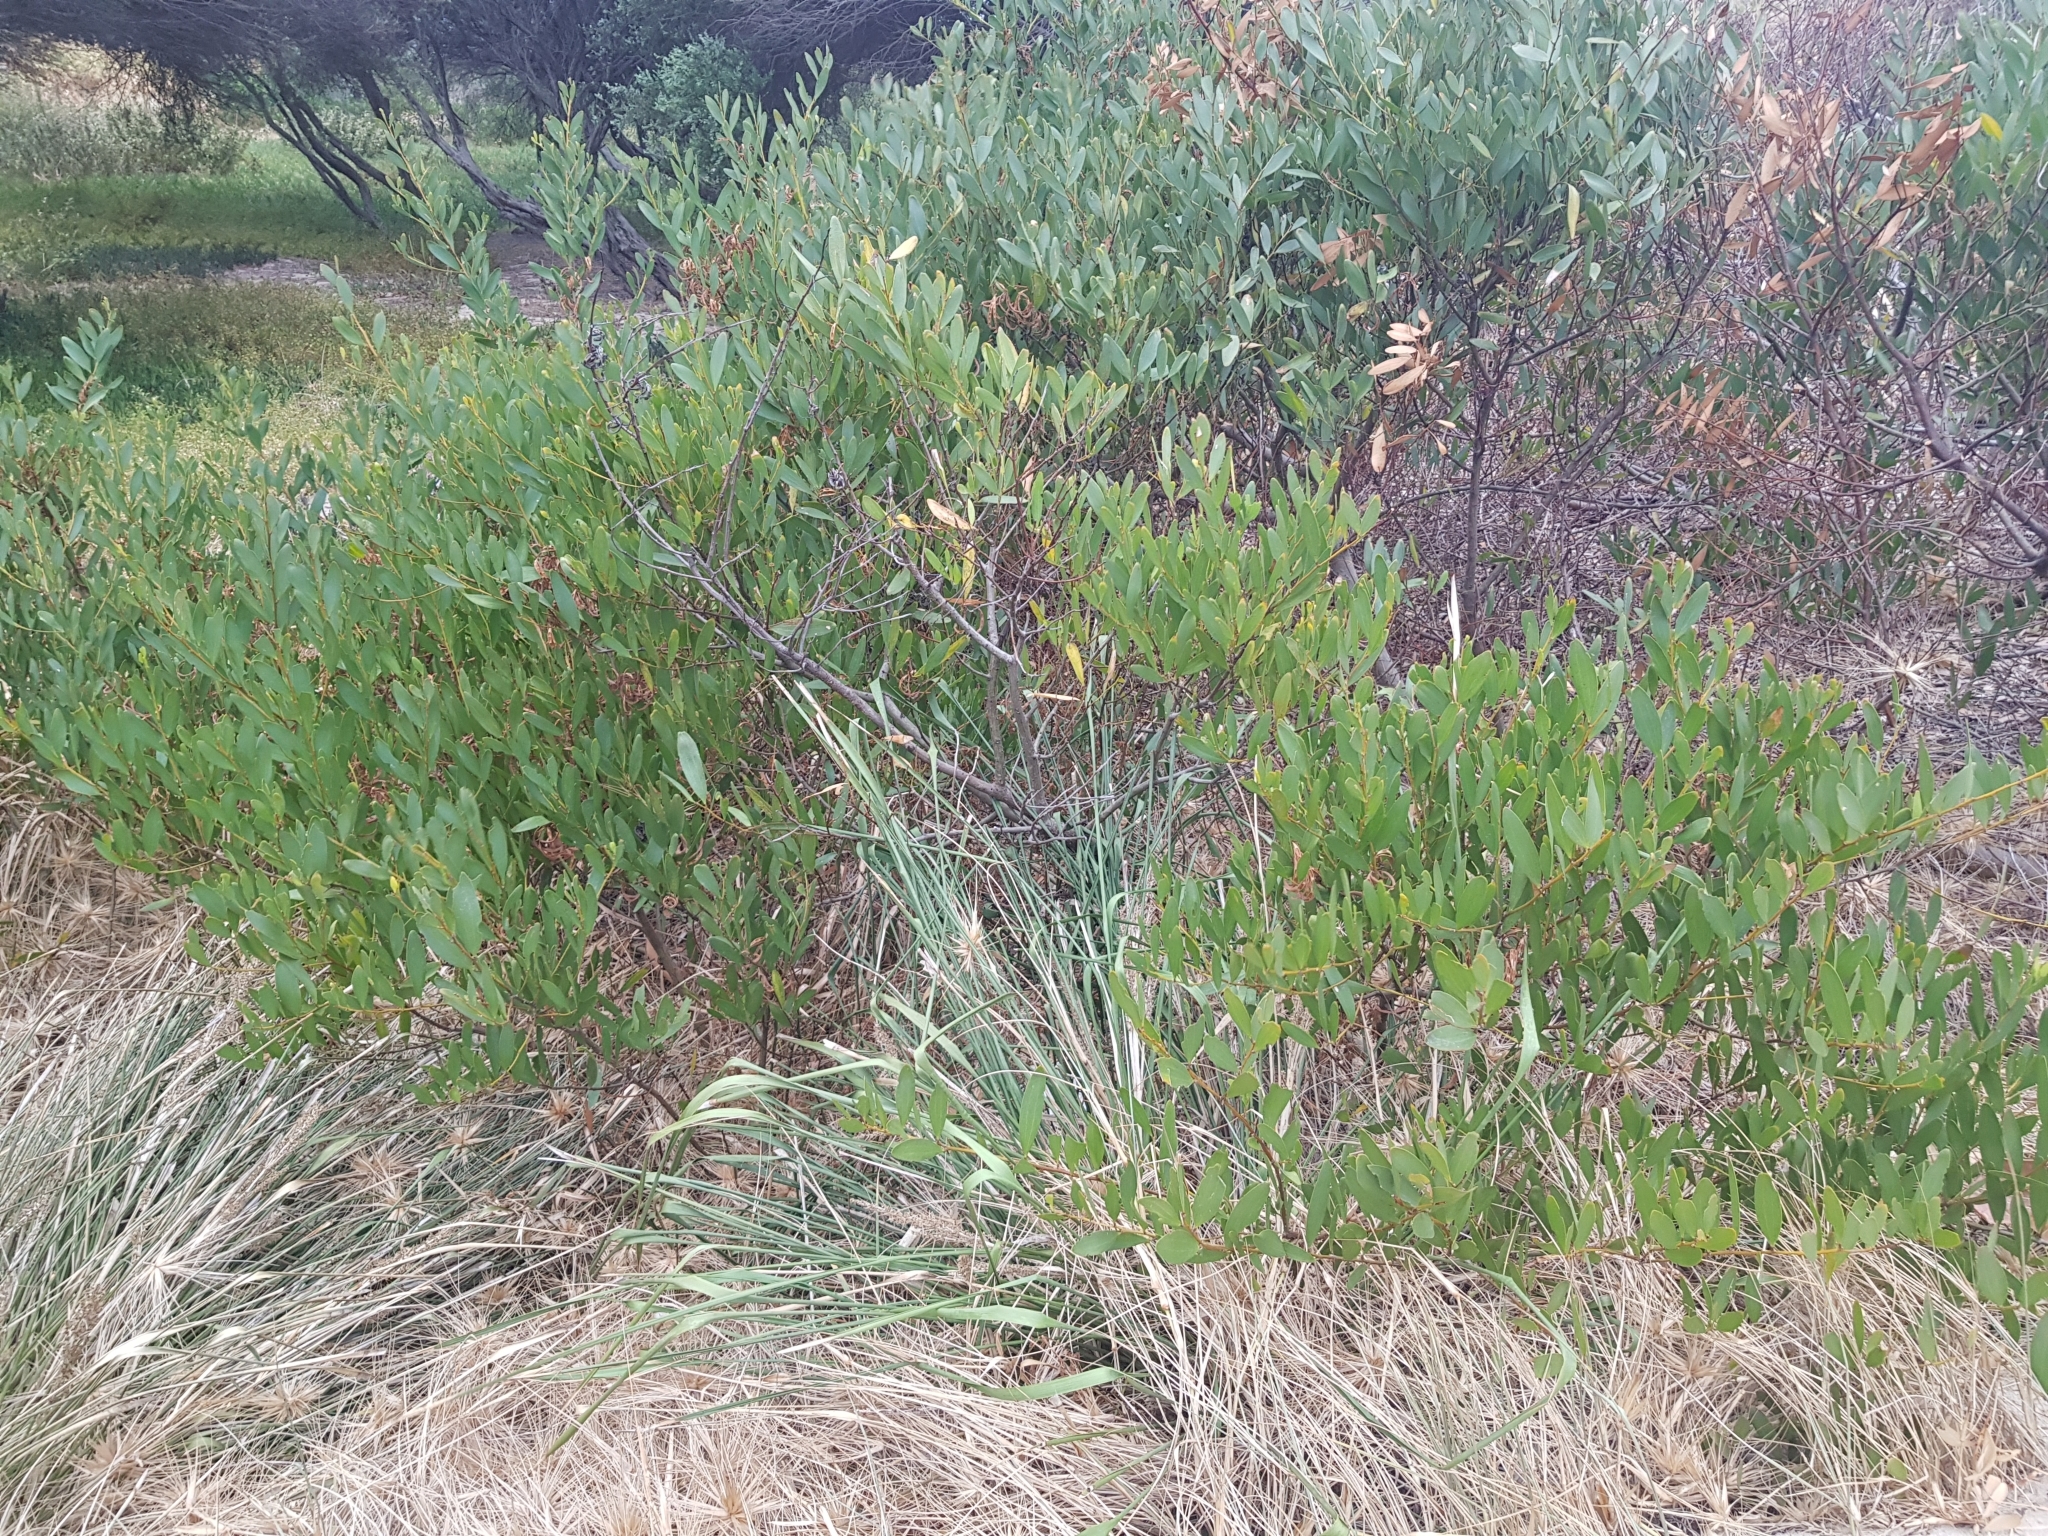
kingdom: Plantae
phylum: Tracheophyta
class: Magnoliopsida
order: Fabales
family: Fabaceae
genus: Acacia
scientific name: Acacia longifolia
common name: Sydney golden wattle
